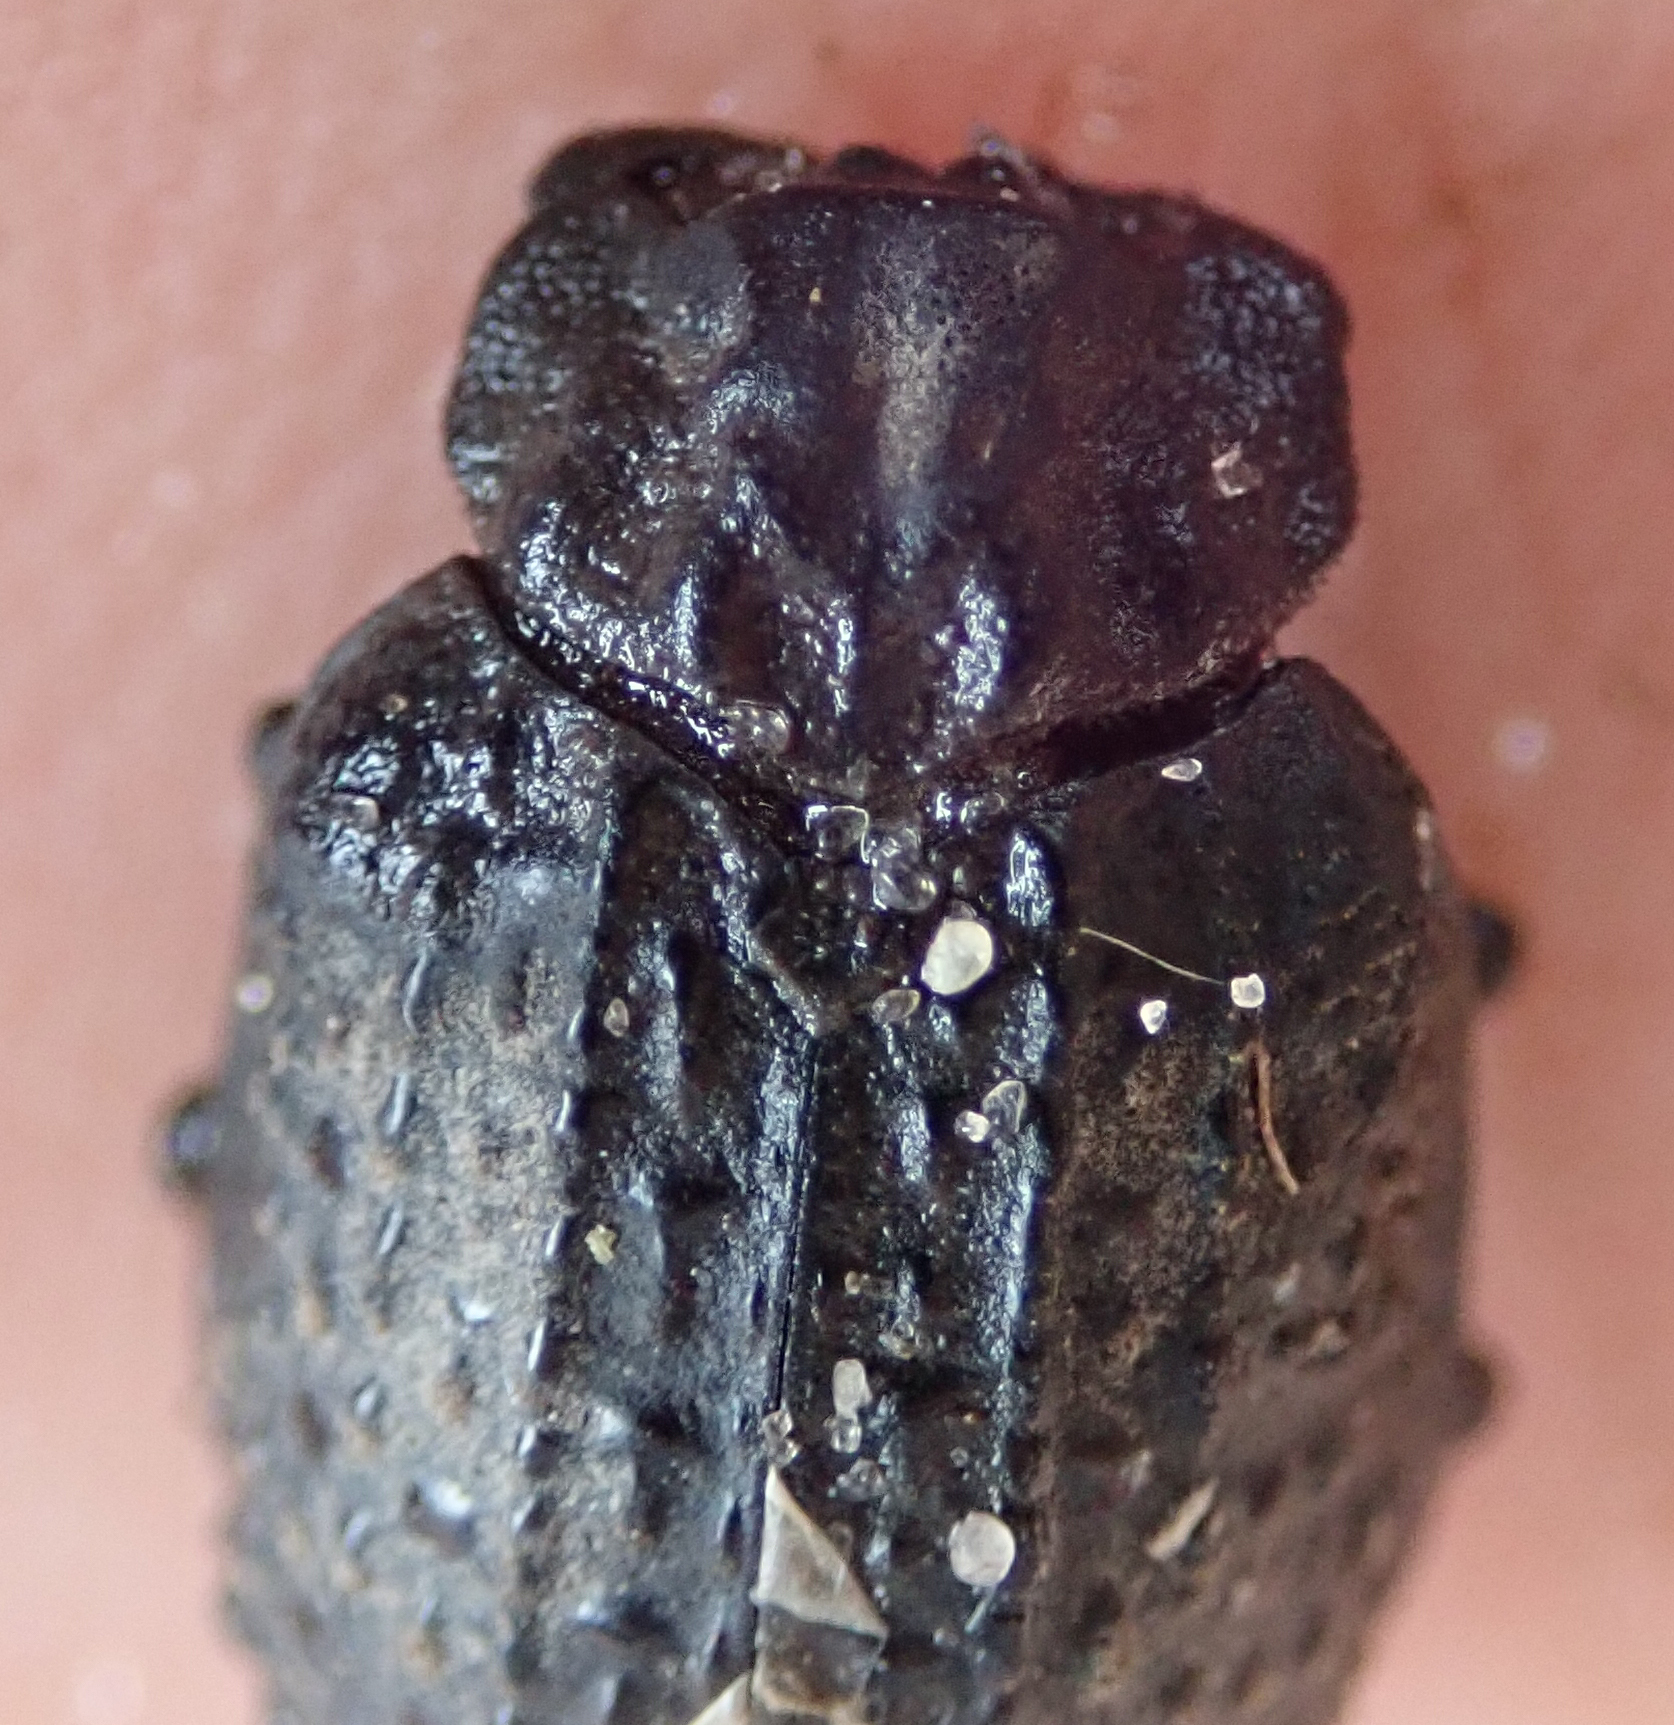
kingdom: Animalia
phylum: Arthropoda
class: Insecta
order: Coleoptera
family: Trogidae
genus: Omorgus
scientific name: Omorgus melancholicus
